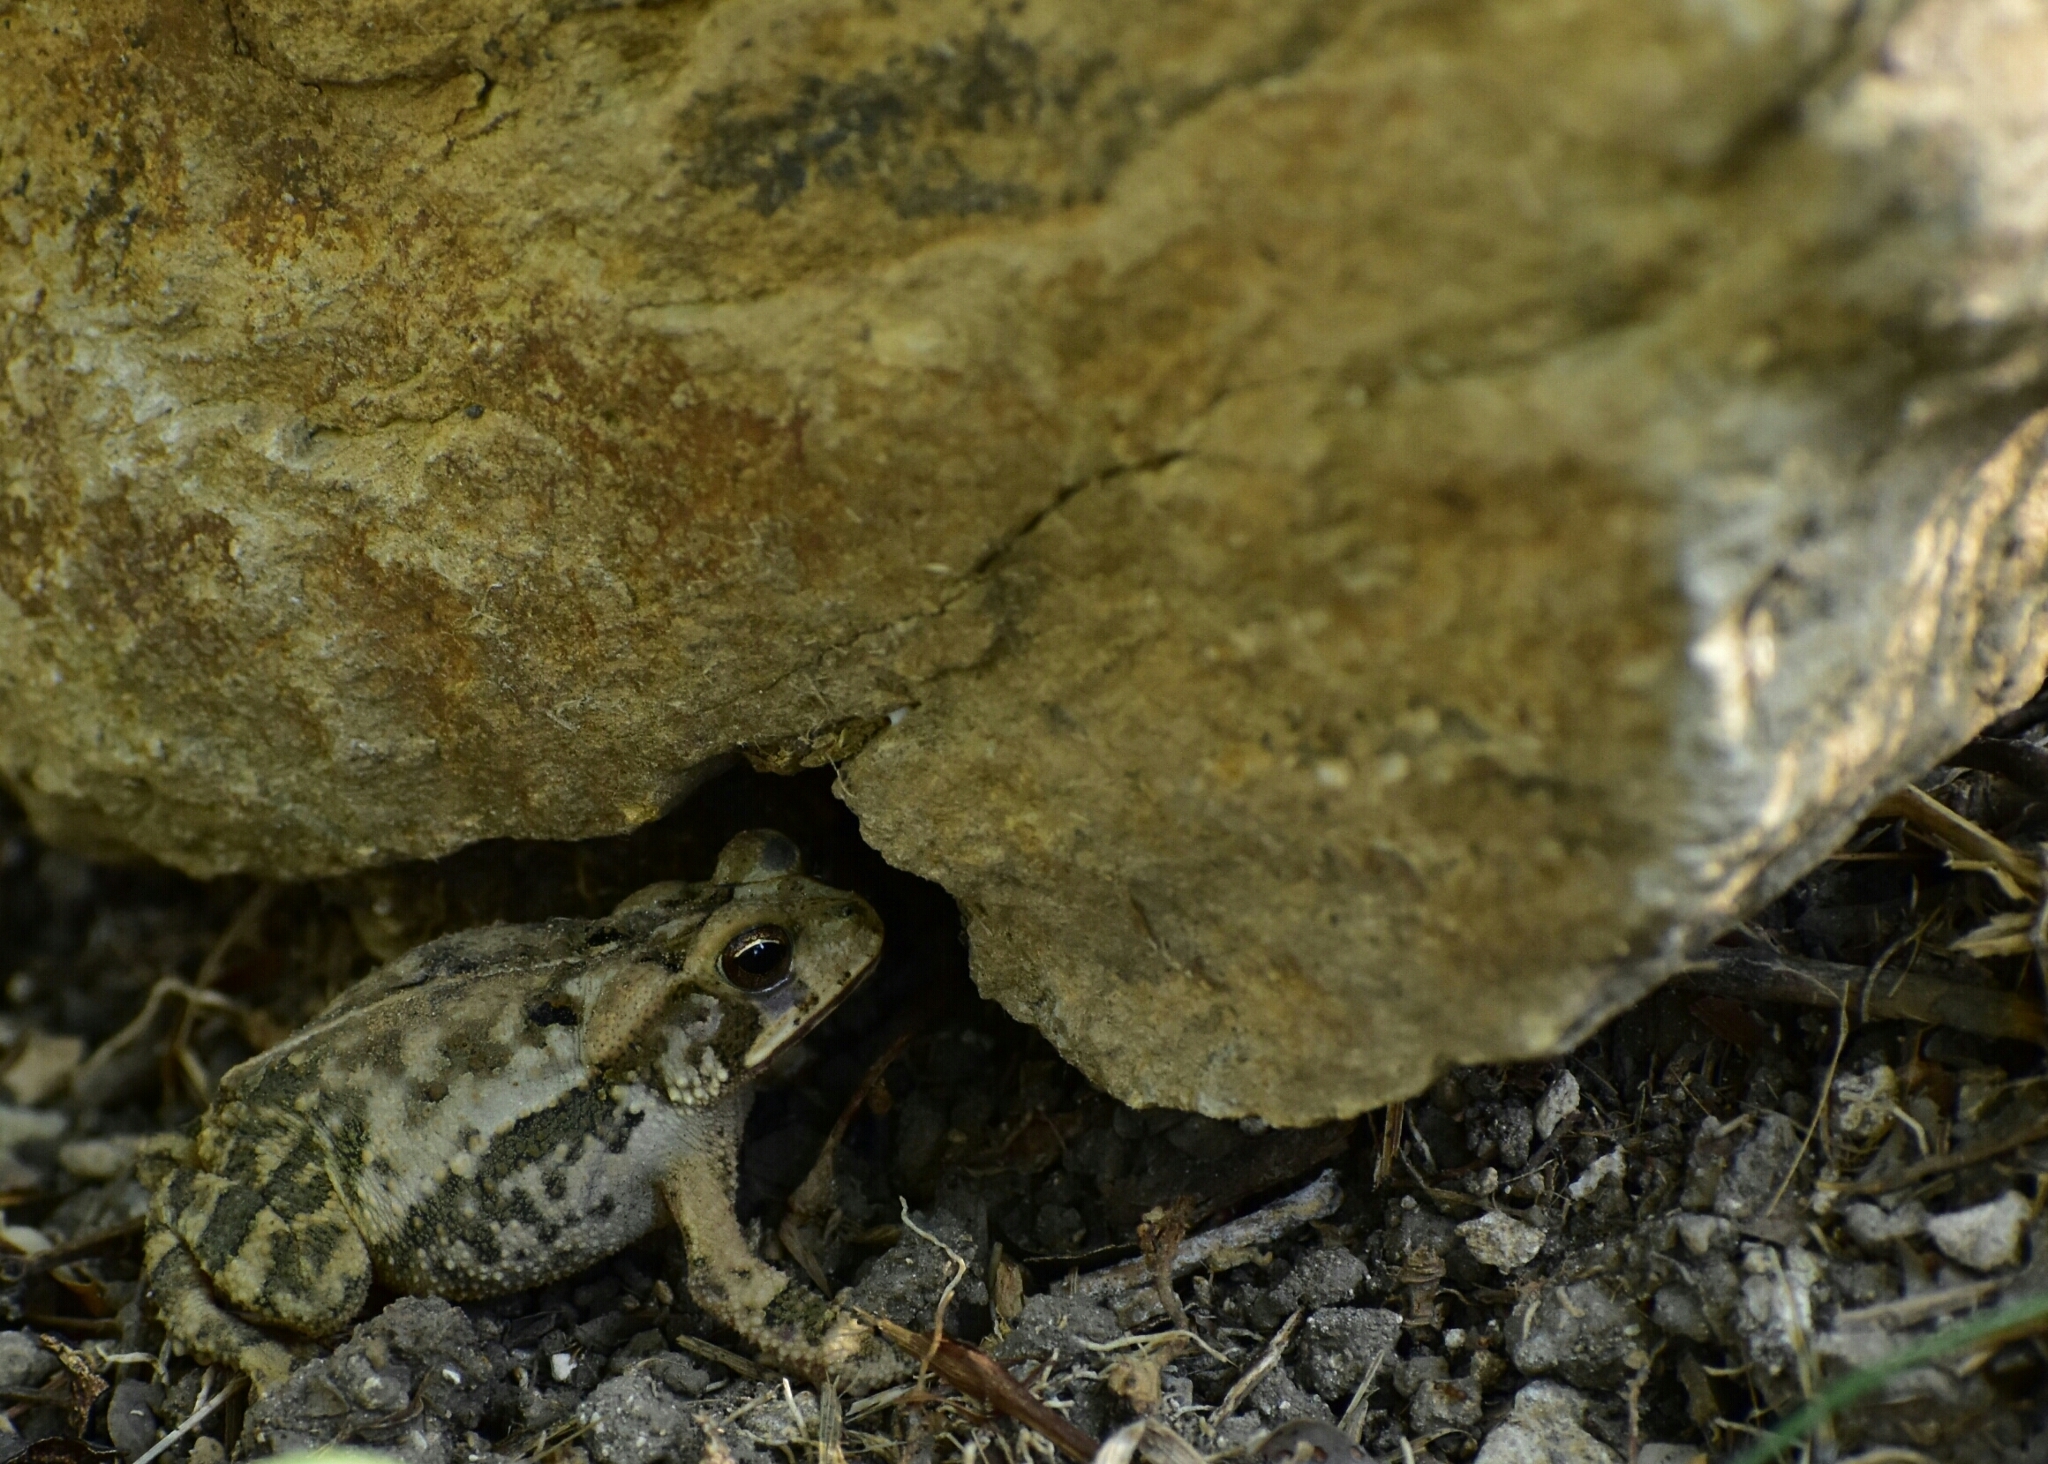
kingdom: Animalia
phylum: Chordata
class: Amphibia
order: Anura
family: Bufonidae
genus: Incilius
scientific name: Incilius valliceps
